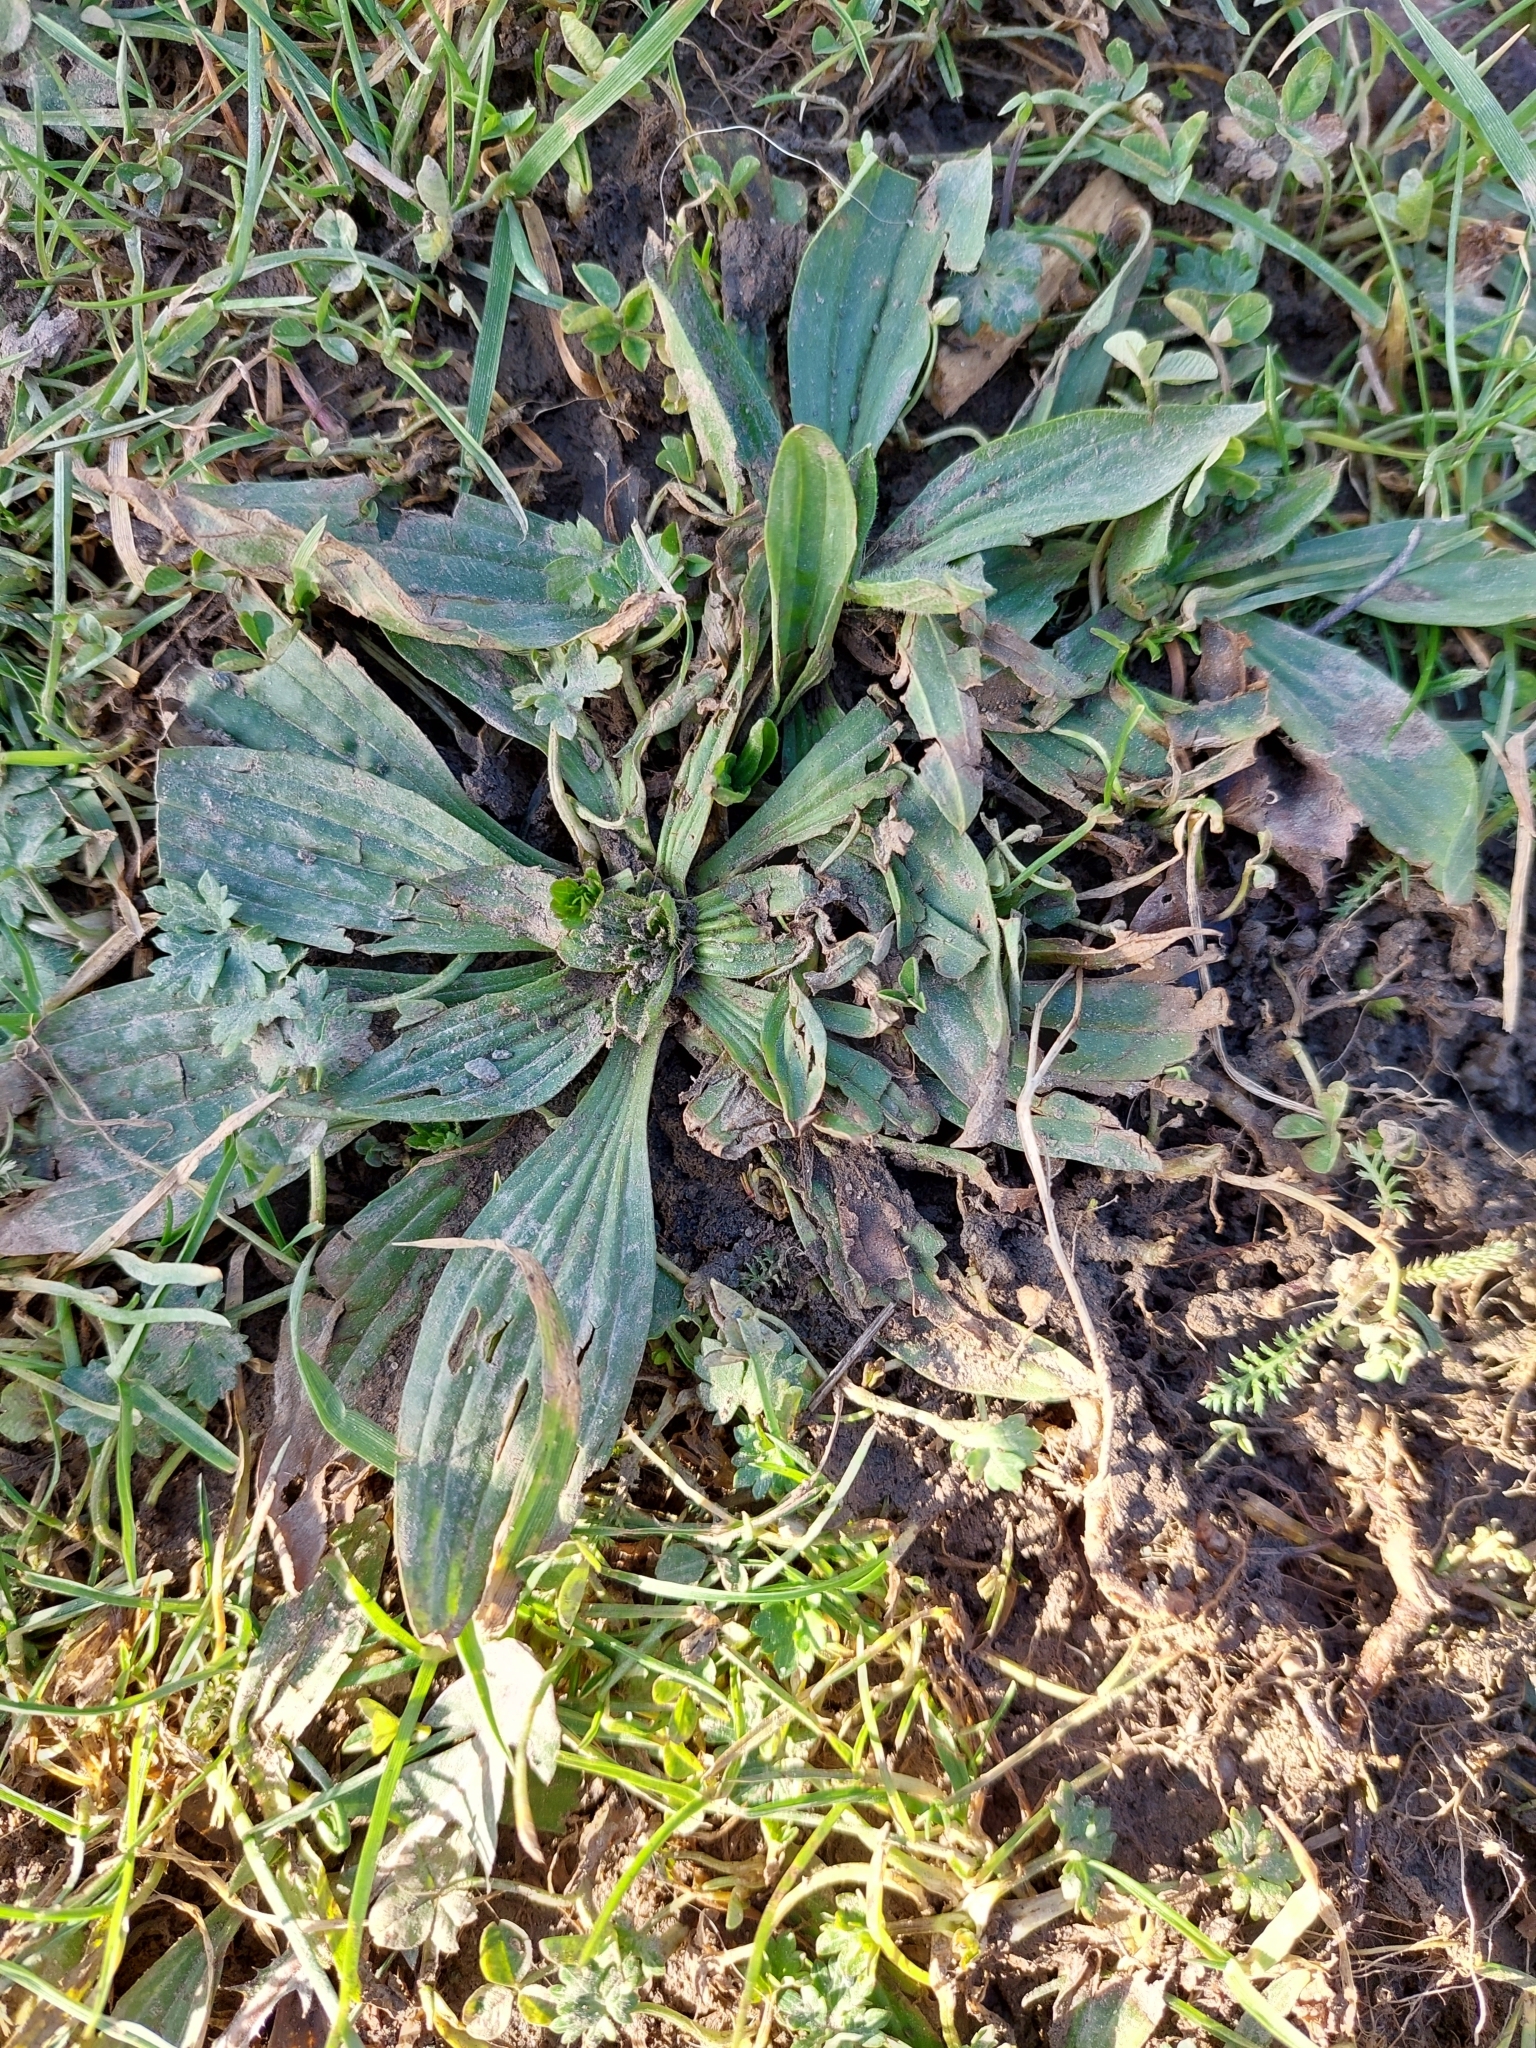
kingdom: Plantae
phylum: Tracheophyta
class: Magnoliopsida
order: Lamiales
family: Plantaginaceae
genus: Plantago
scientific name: Plantago lanceolata
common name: Ribwort plantain
